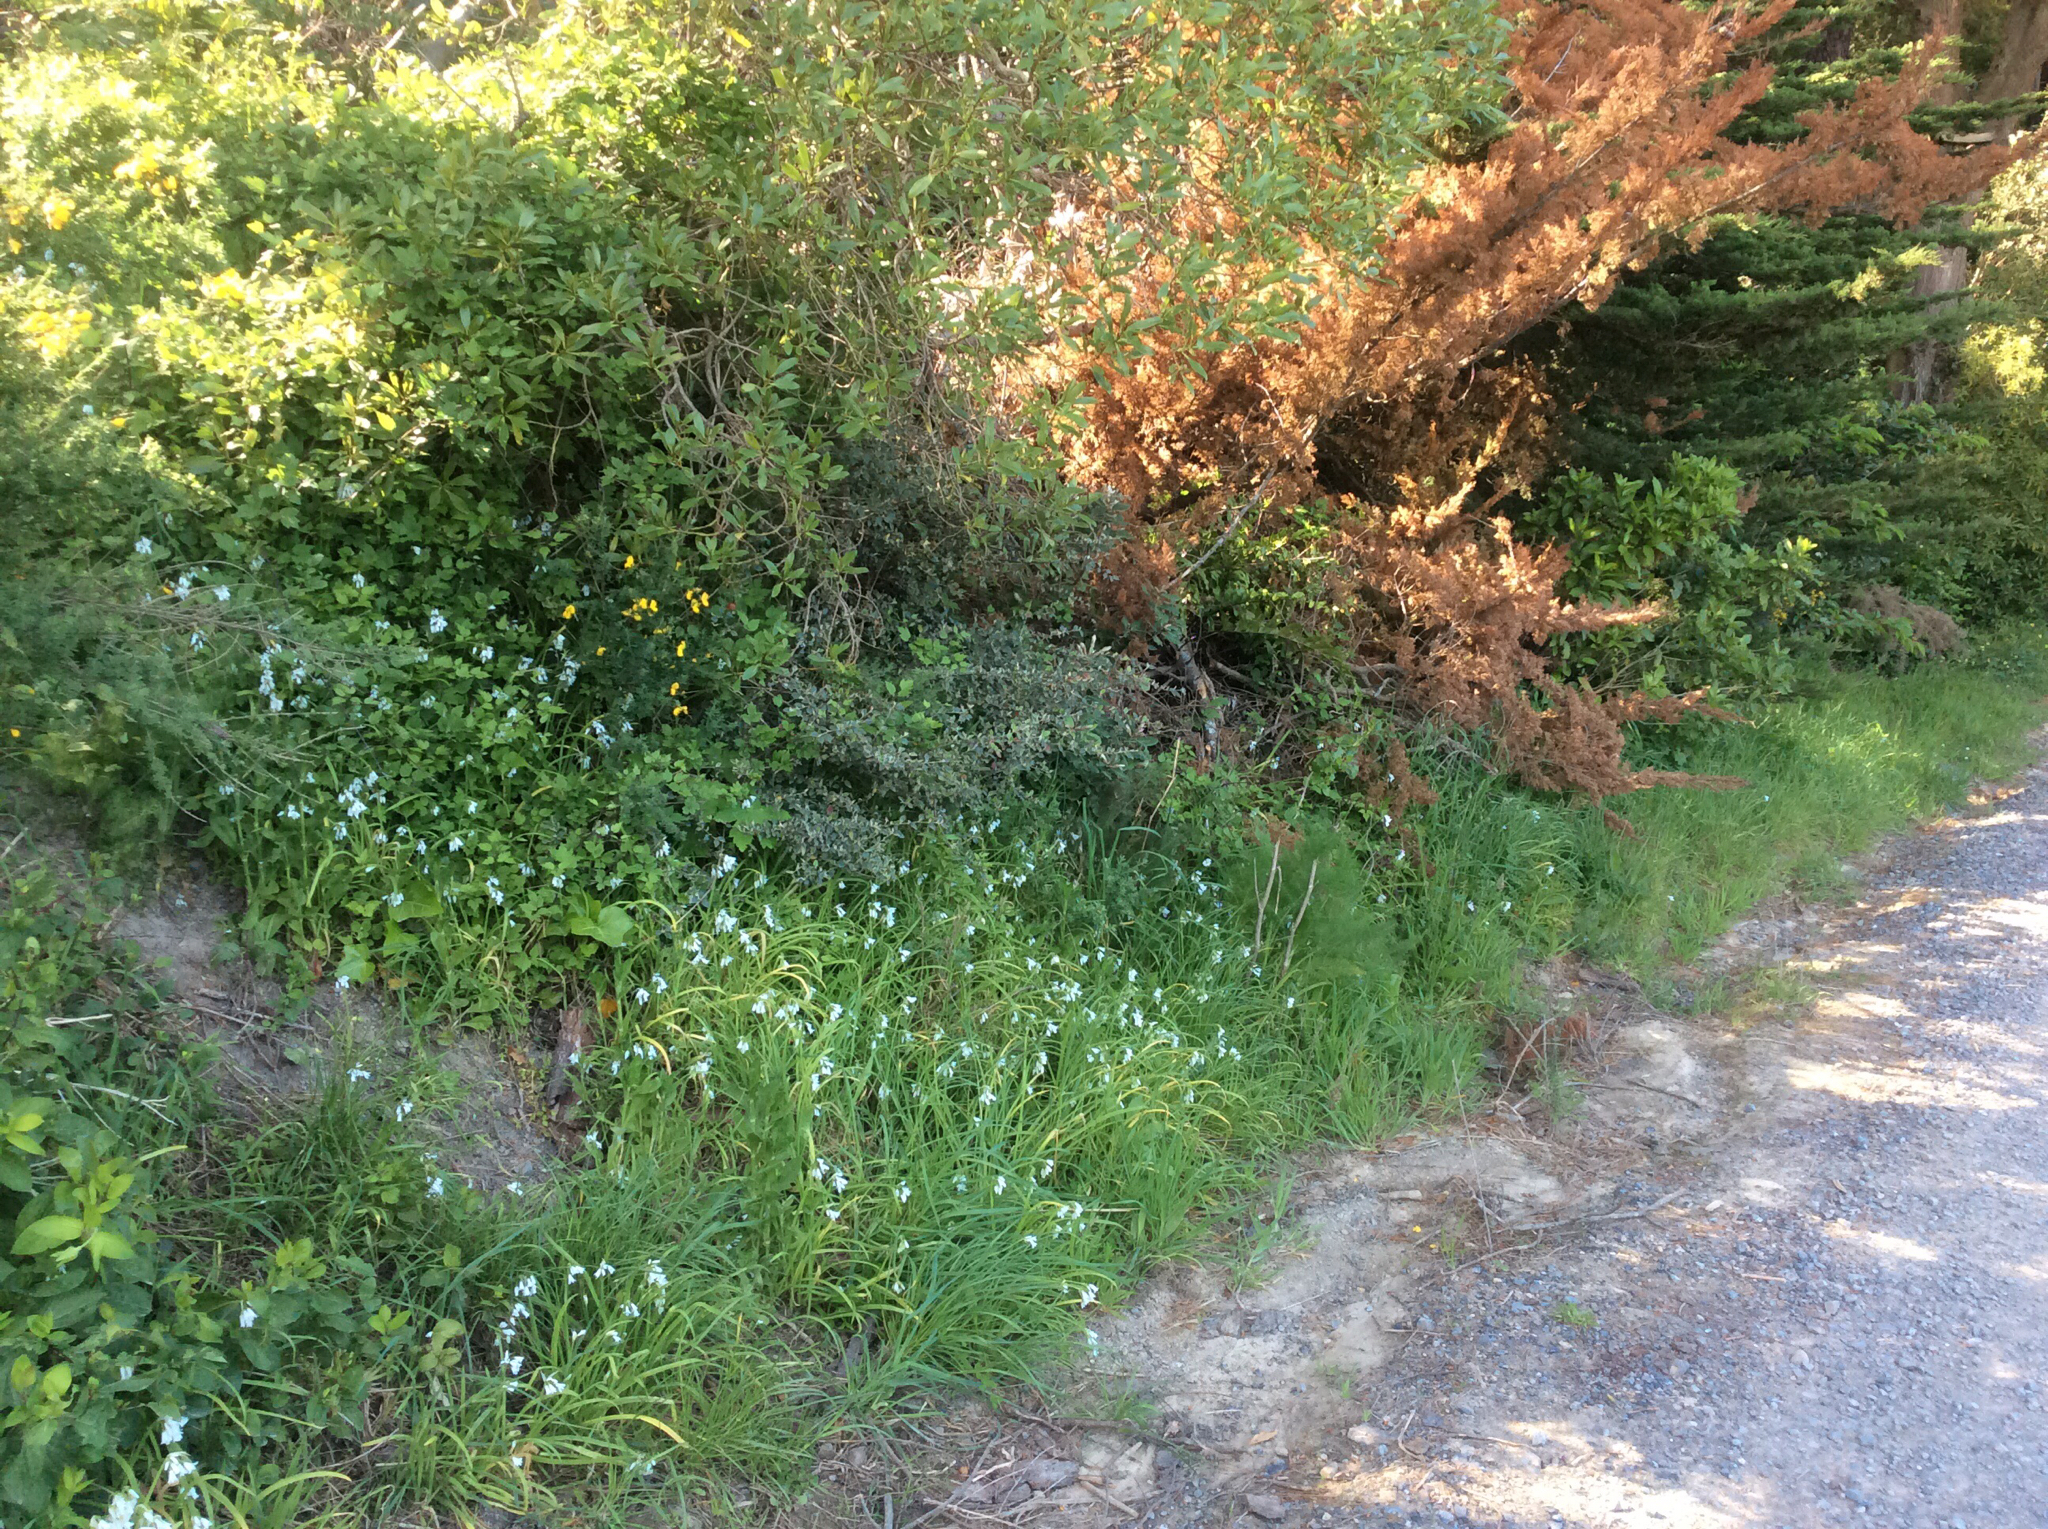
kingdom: Plantae
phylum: Tracheophyta
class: Magnoliopsida
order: Ranunculales
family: Ranunculaceae
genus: Clematis
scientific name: Clematis vitalba
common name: Evergreen clematis
